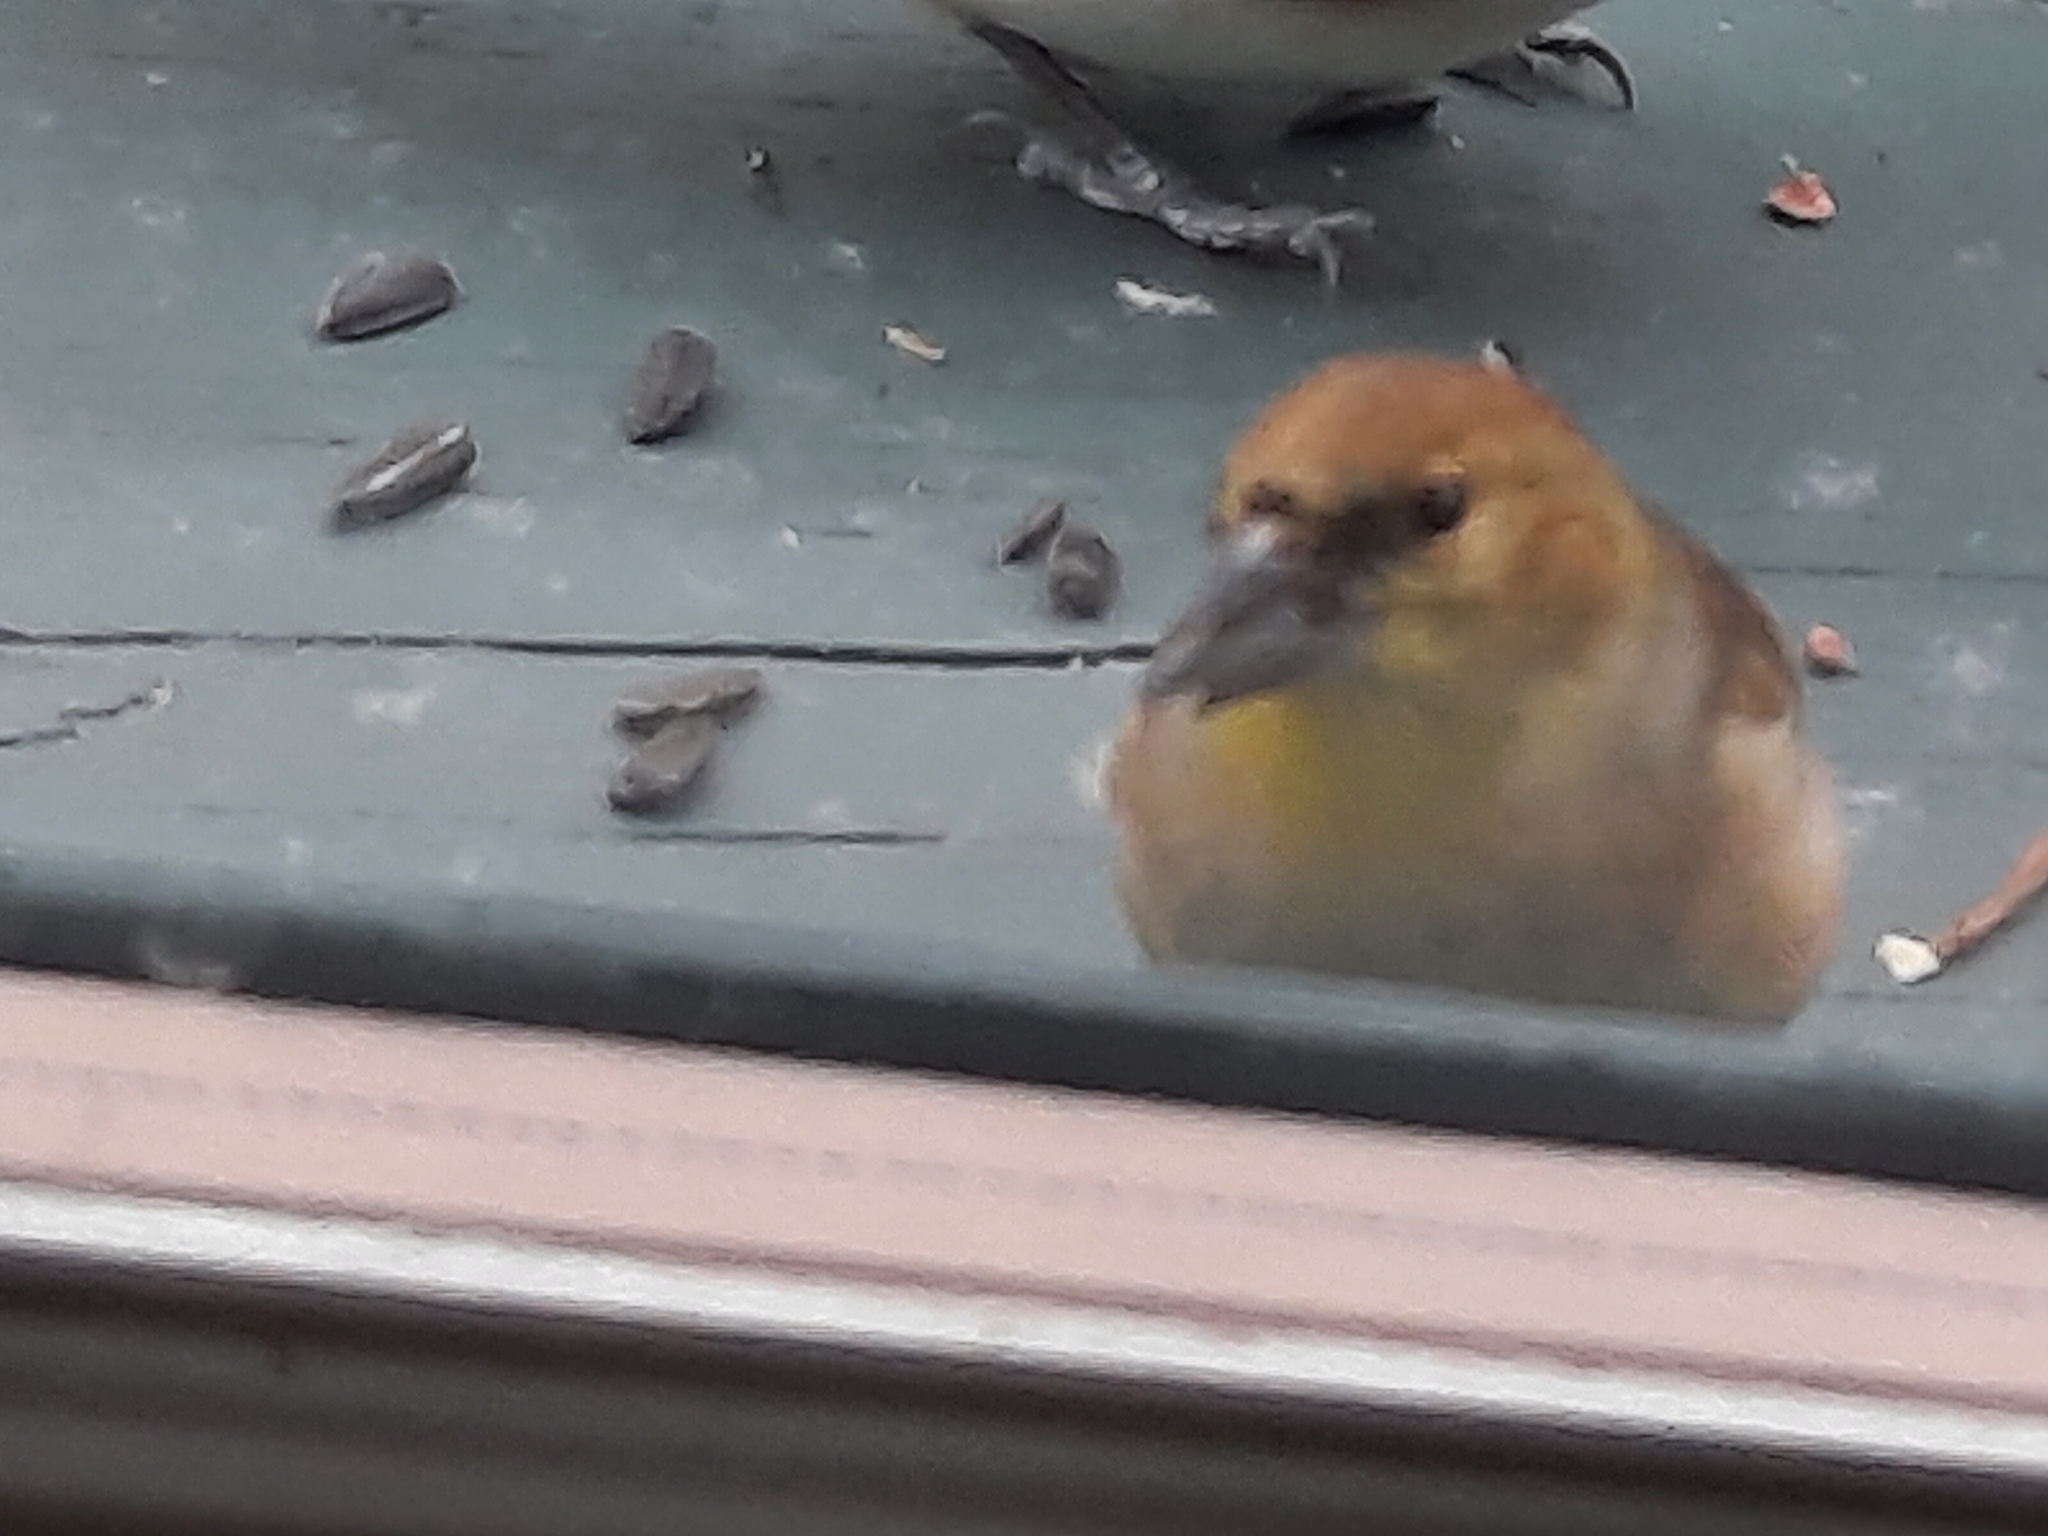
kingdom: Animalia
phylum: Chordata
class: Aves
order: Passeriformes
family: Fringillidae
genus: Spinus
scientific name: Spinus tristis
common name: American goldfinch
